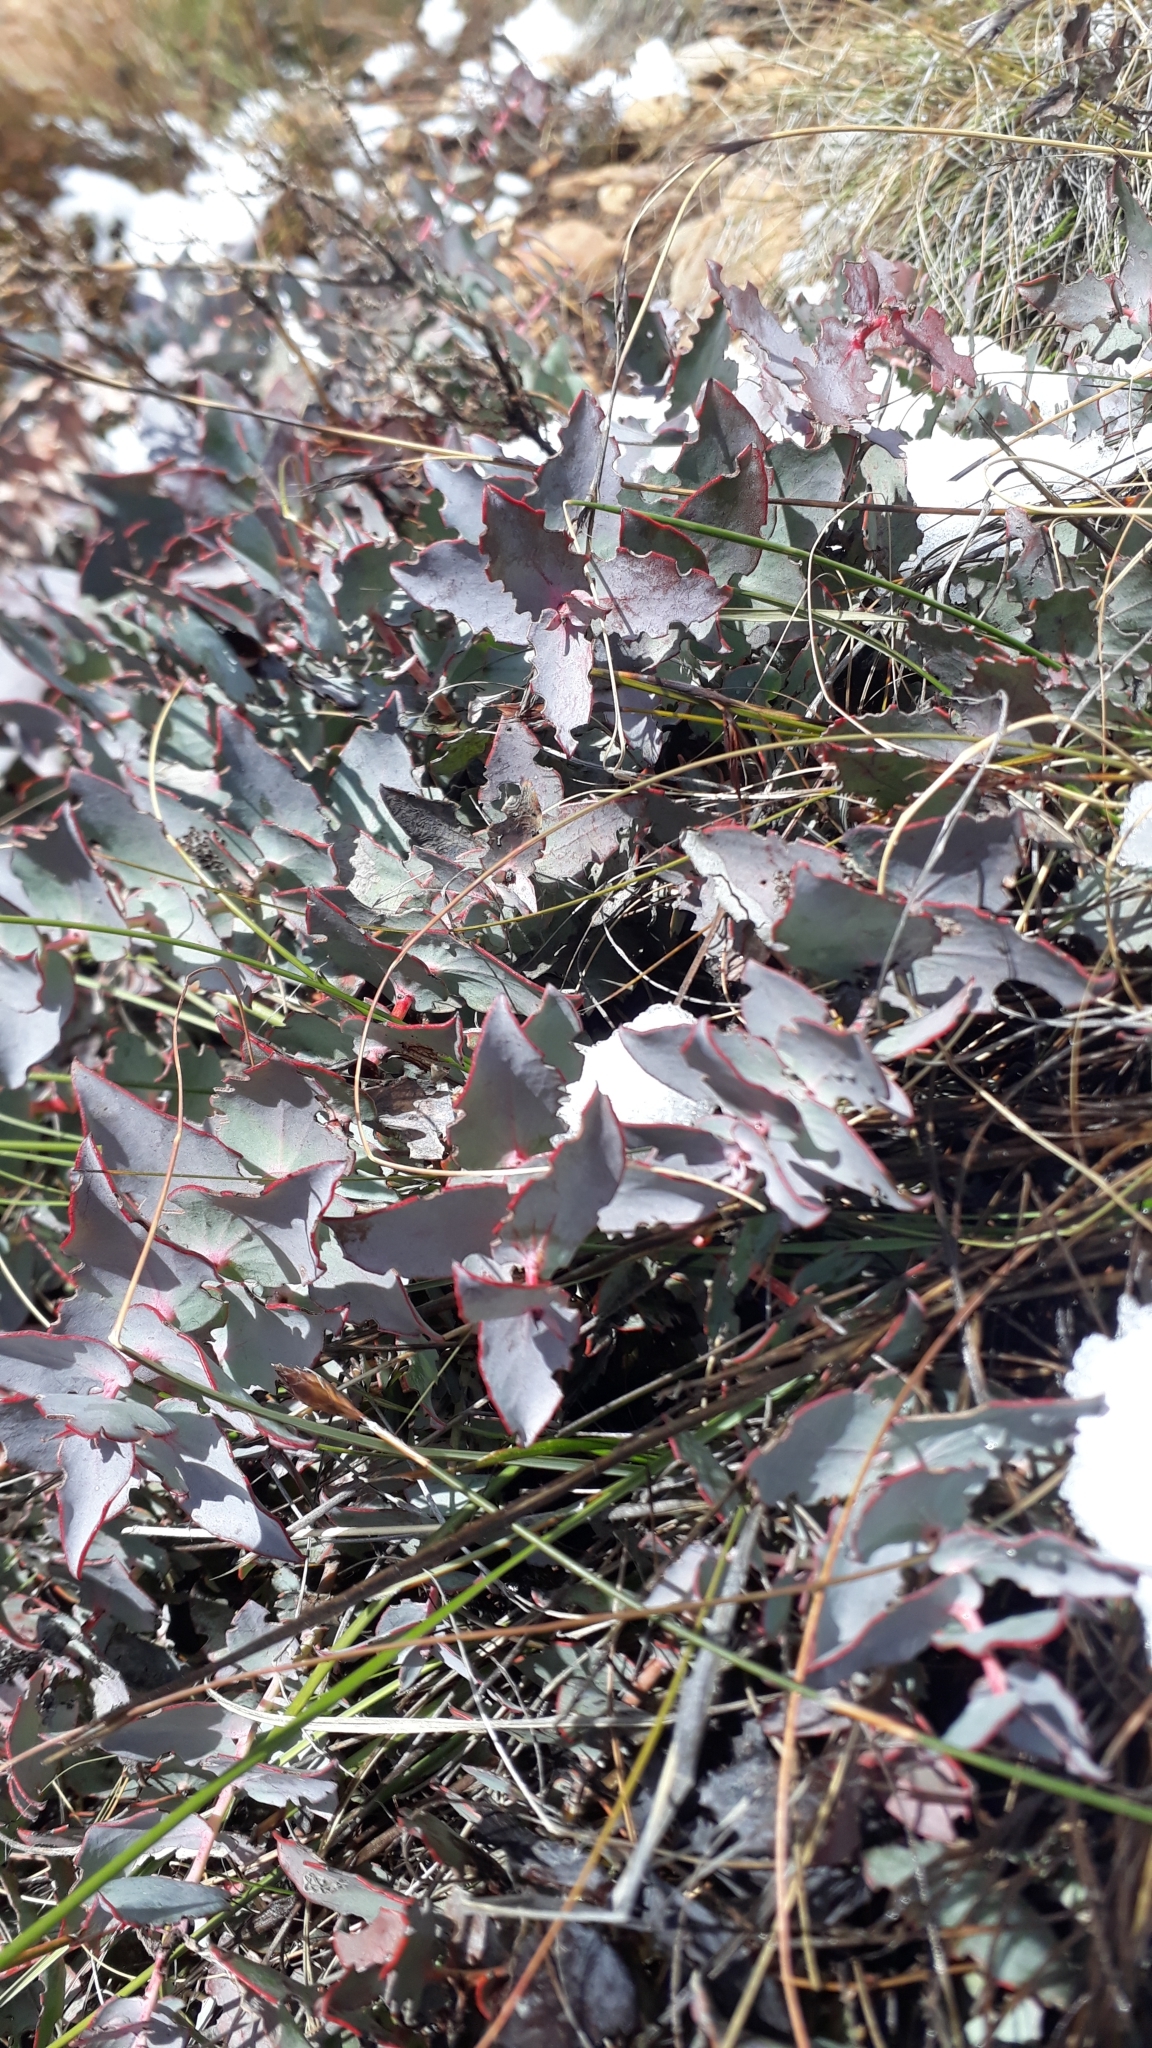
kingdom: Plantae
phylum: Tracheophyta
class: Magnoliopsida
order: Proteales
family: Proteaceae
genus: Protea
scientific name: Protea amplexicaulis
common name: Clasping-leaf sugarbush
